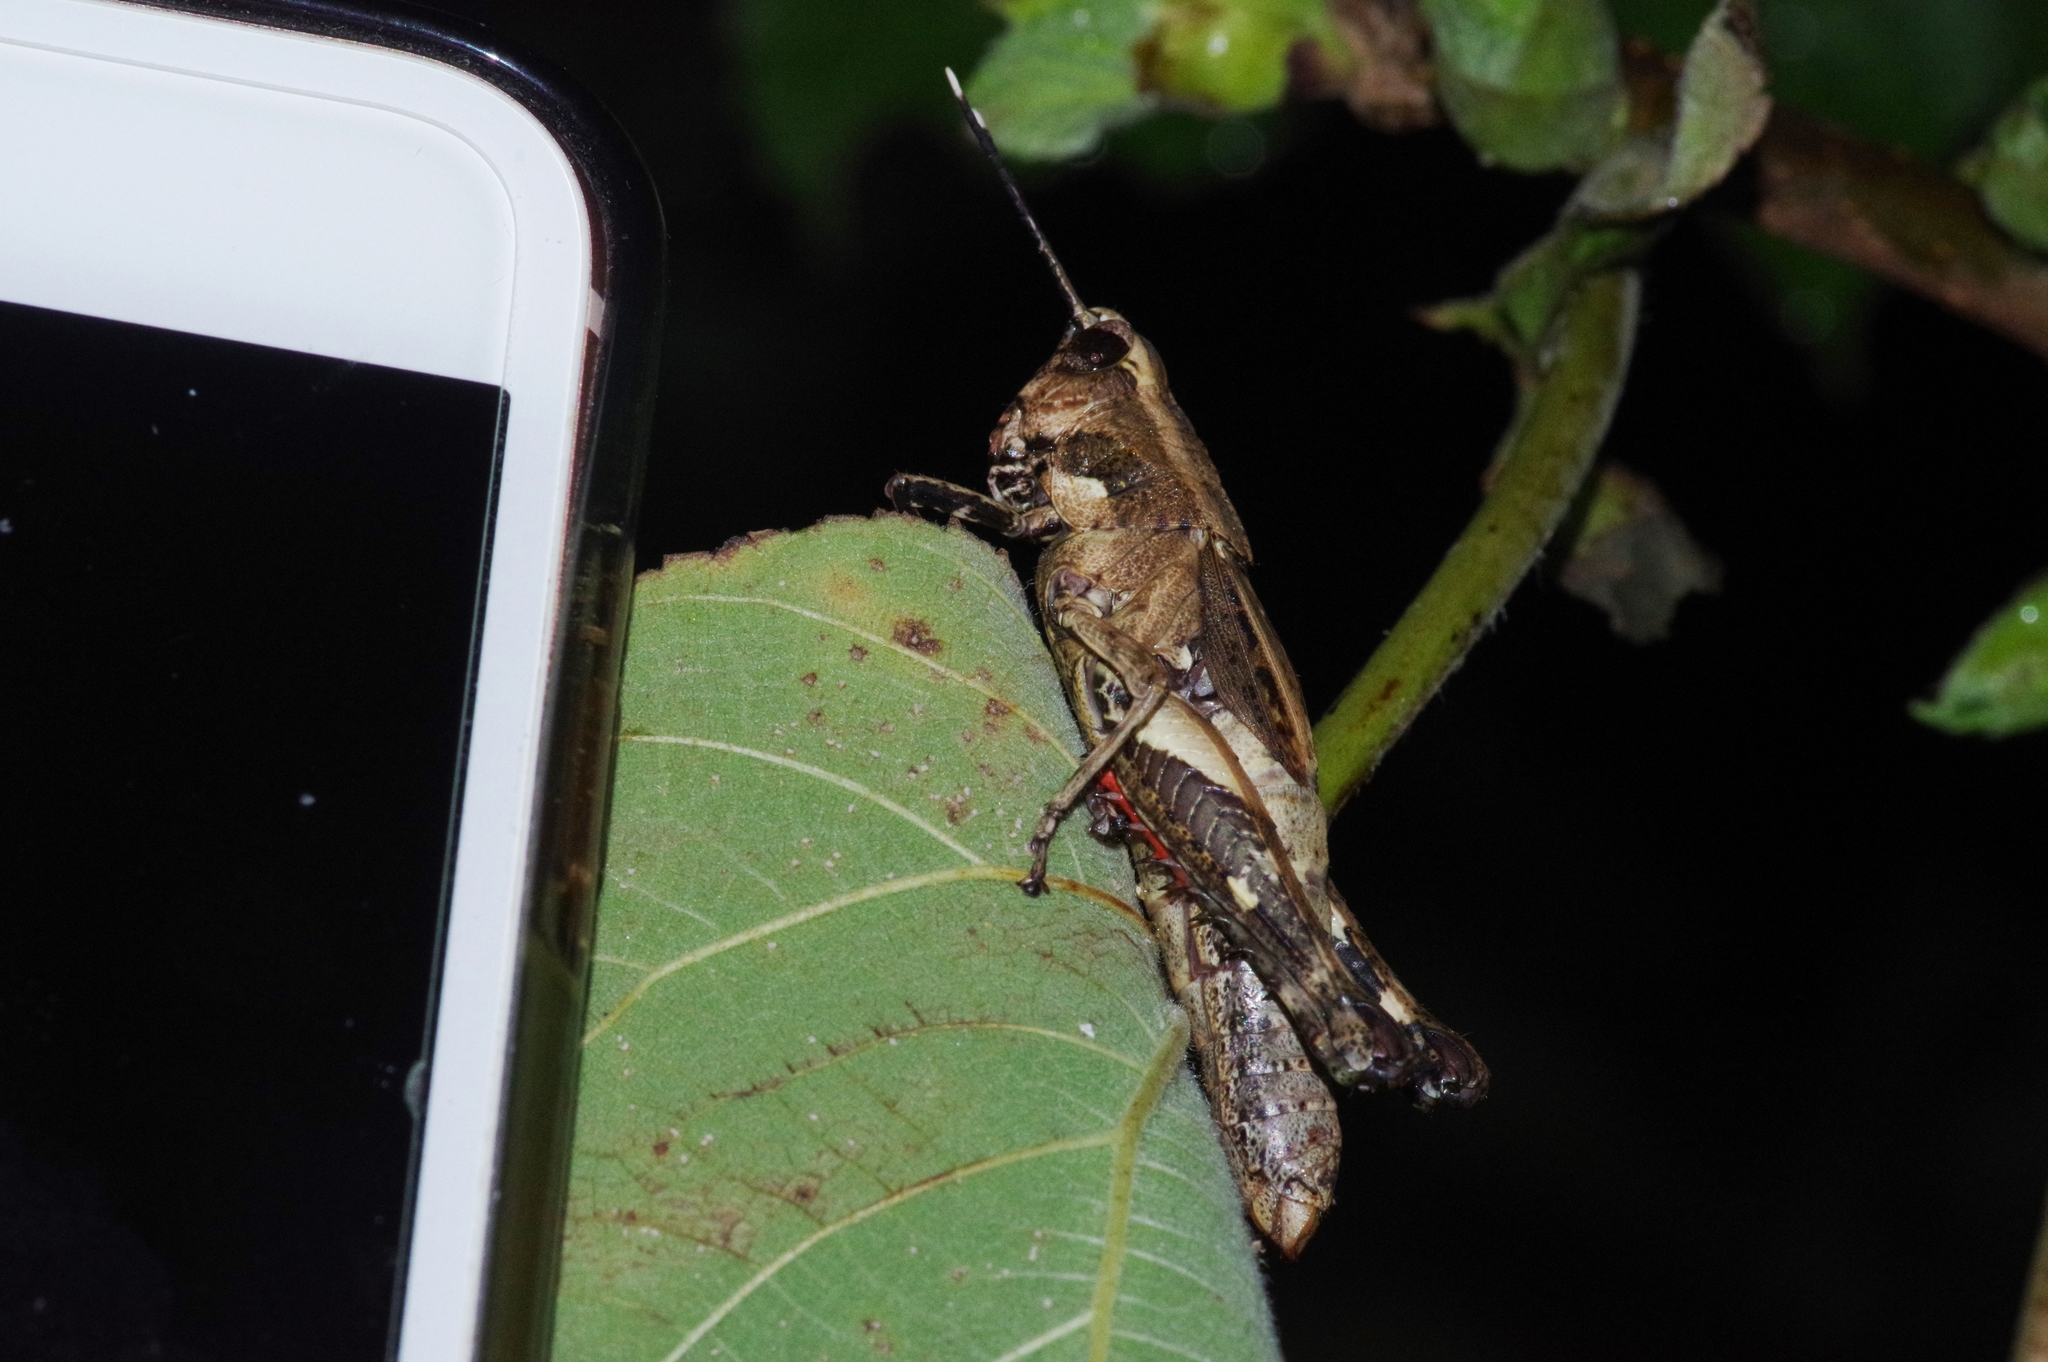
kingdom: Animalia
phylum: Arthropoda
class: Insecta
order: Orthoptera
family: Acrididae
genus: Traulia
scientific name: Traulia ornata
